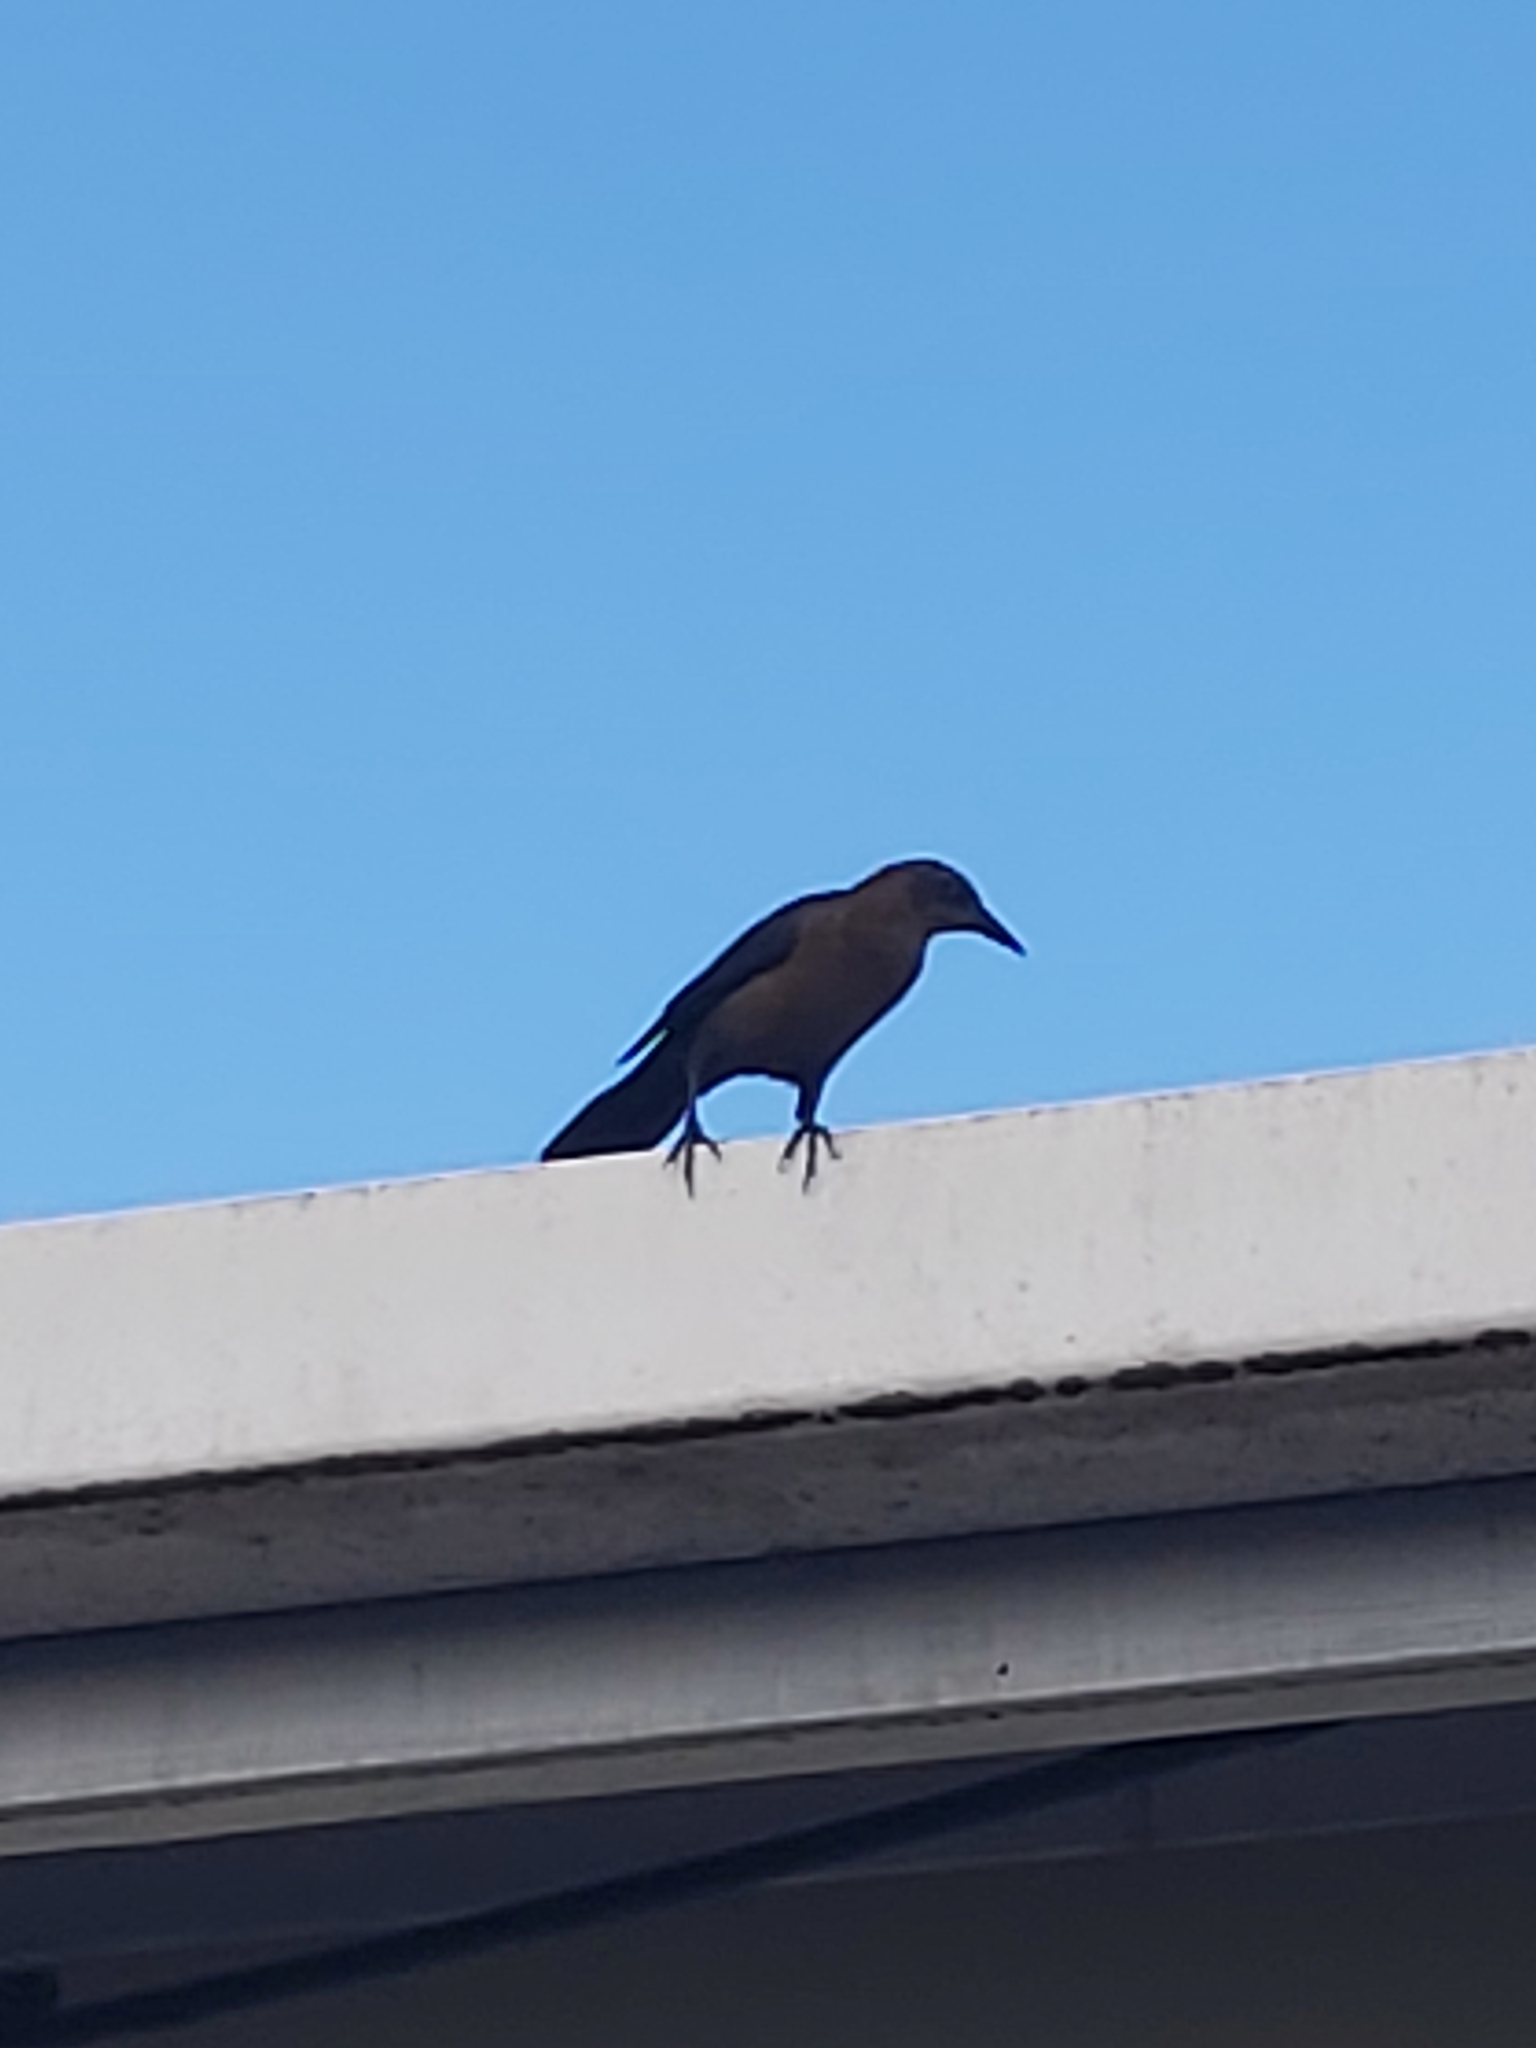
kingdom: Animalia
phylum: Chordata
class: Aves
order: Passeriformes
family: Icteridae
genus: Quiscalus
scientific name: Quiscalus mexicanus
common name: Great-tailed grackle
